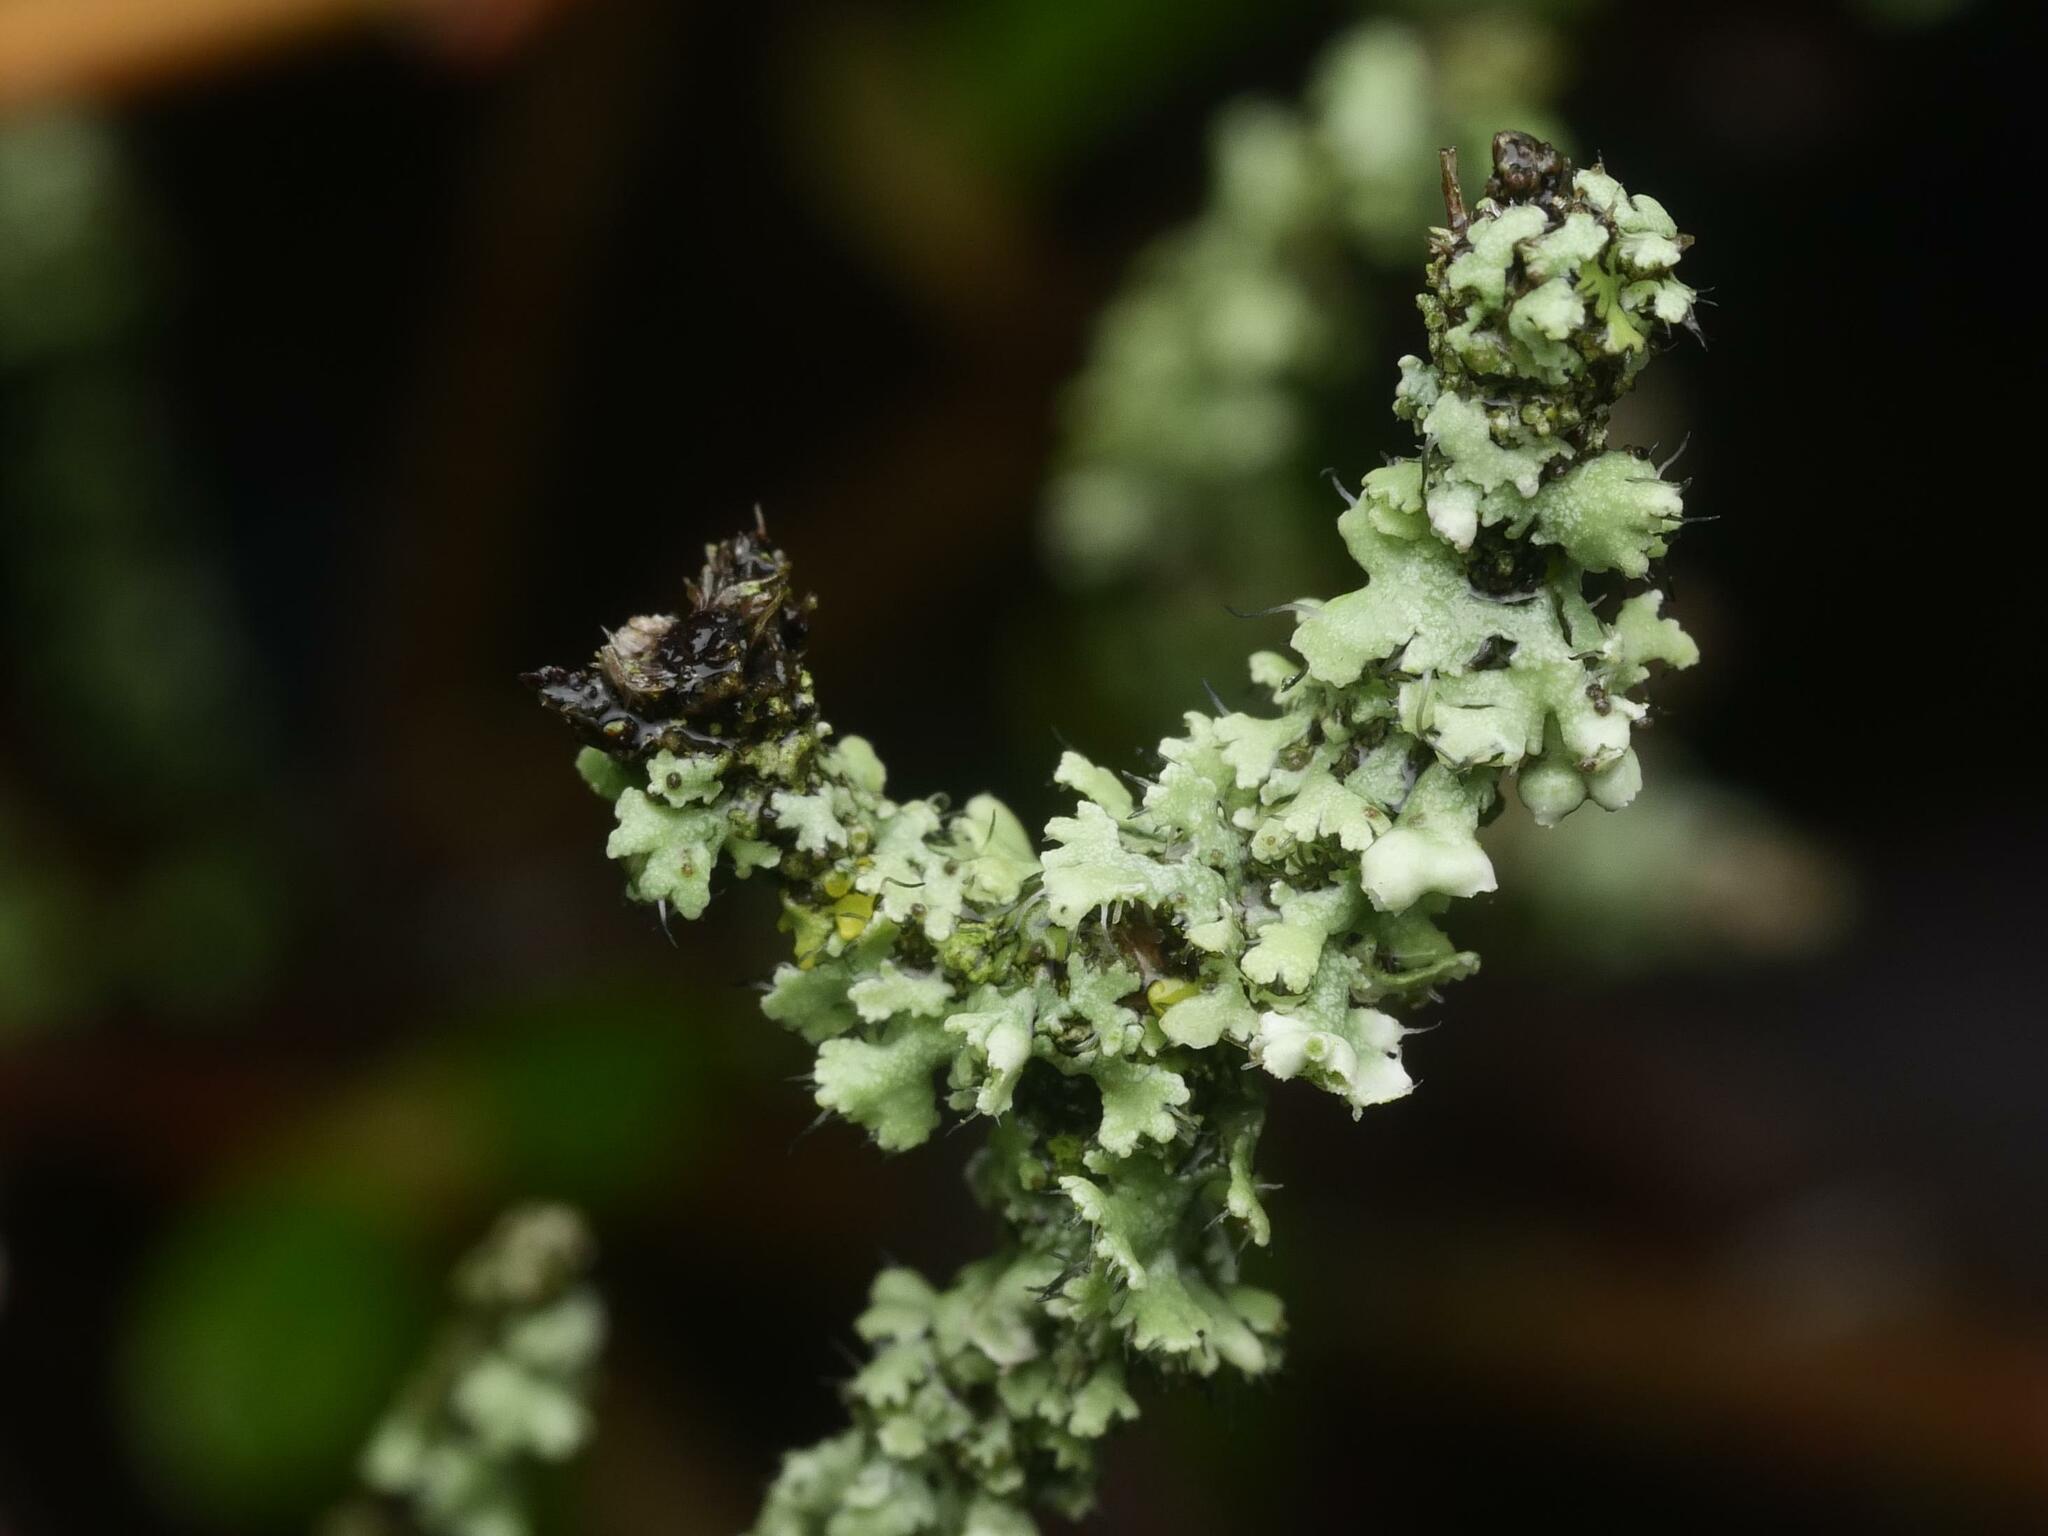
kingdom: Fungi
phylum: Ascomycota
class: Lecanoromycetes
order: Caliciales
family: Physciaceae
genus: Physcia
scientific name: Physcia adscendens
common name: Hooded rosette lichen
